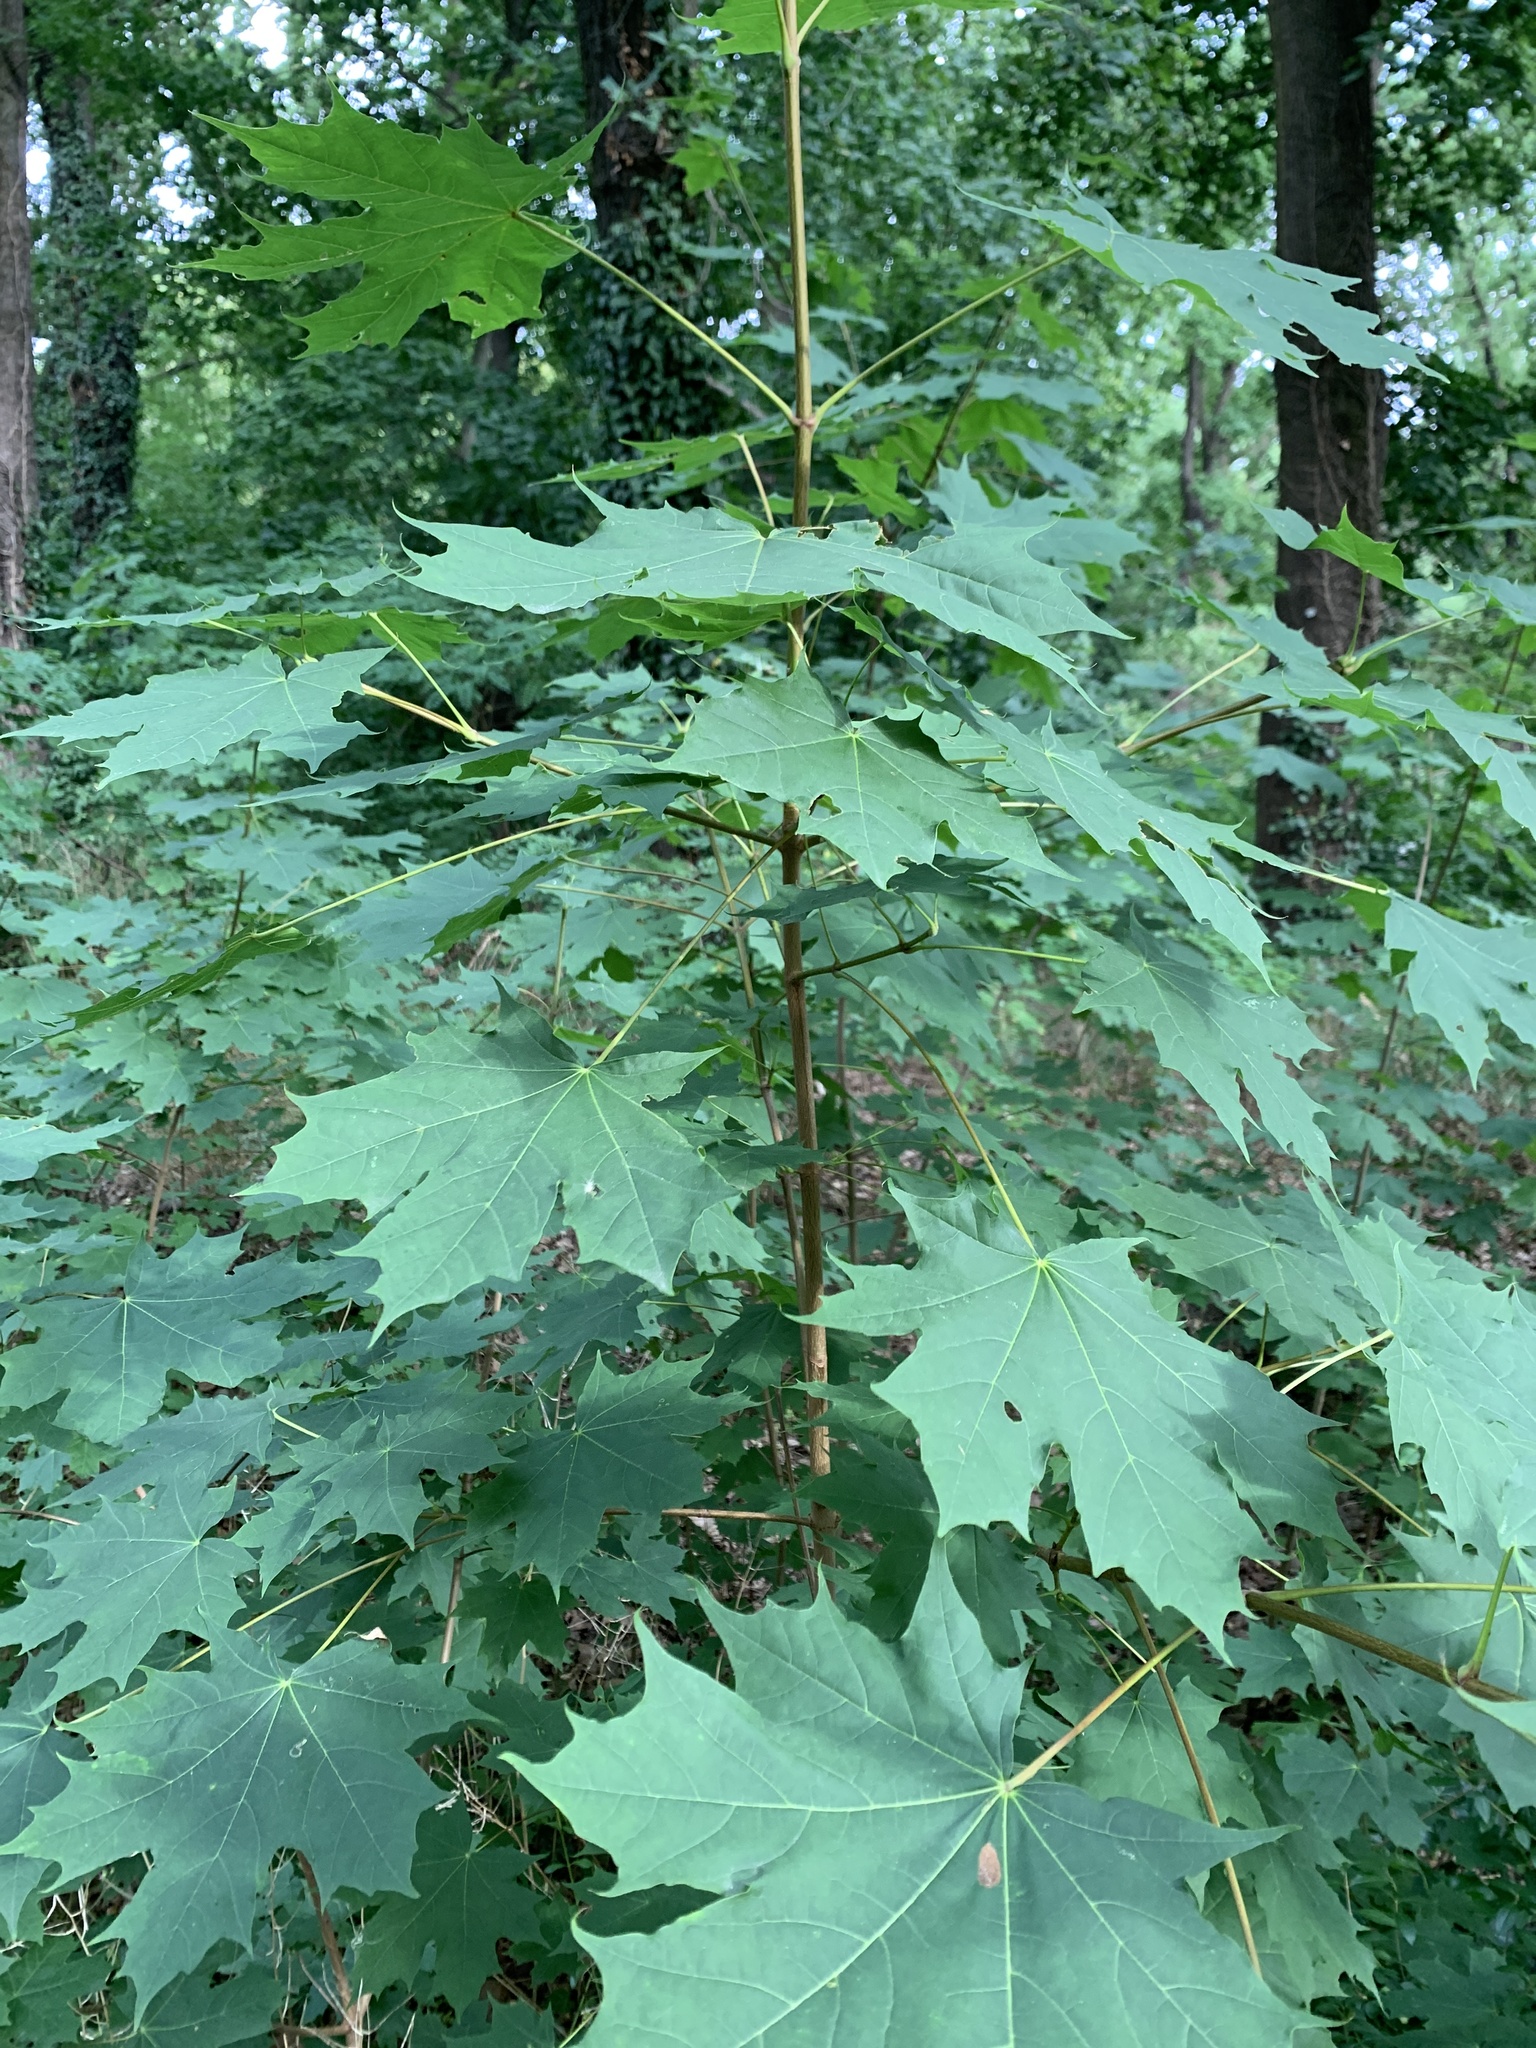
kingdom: Plantae
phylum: Tracheophyta
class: Magnoliopsida
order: Sapindales
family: Sapindaceae
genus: Acer
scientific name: Acer platanoides
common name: Norway maple
